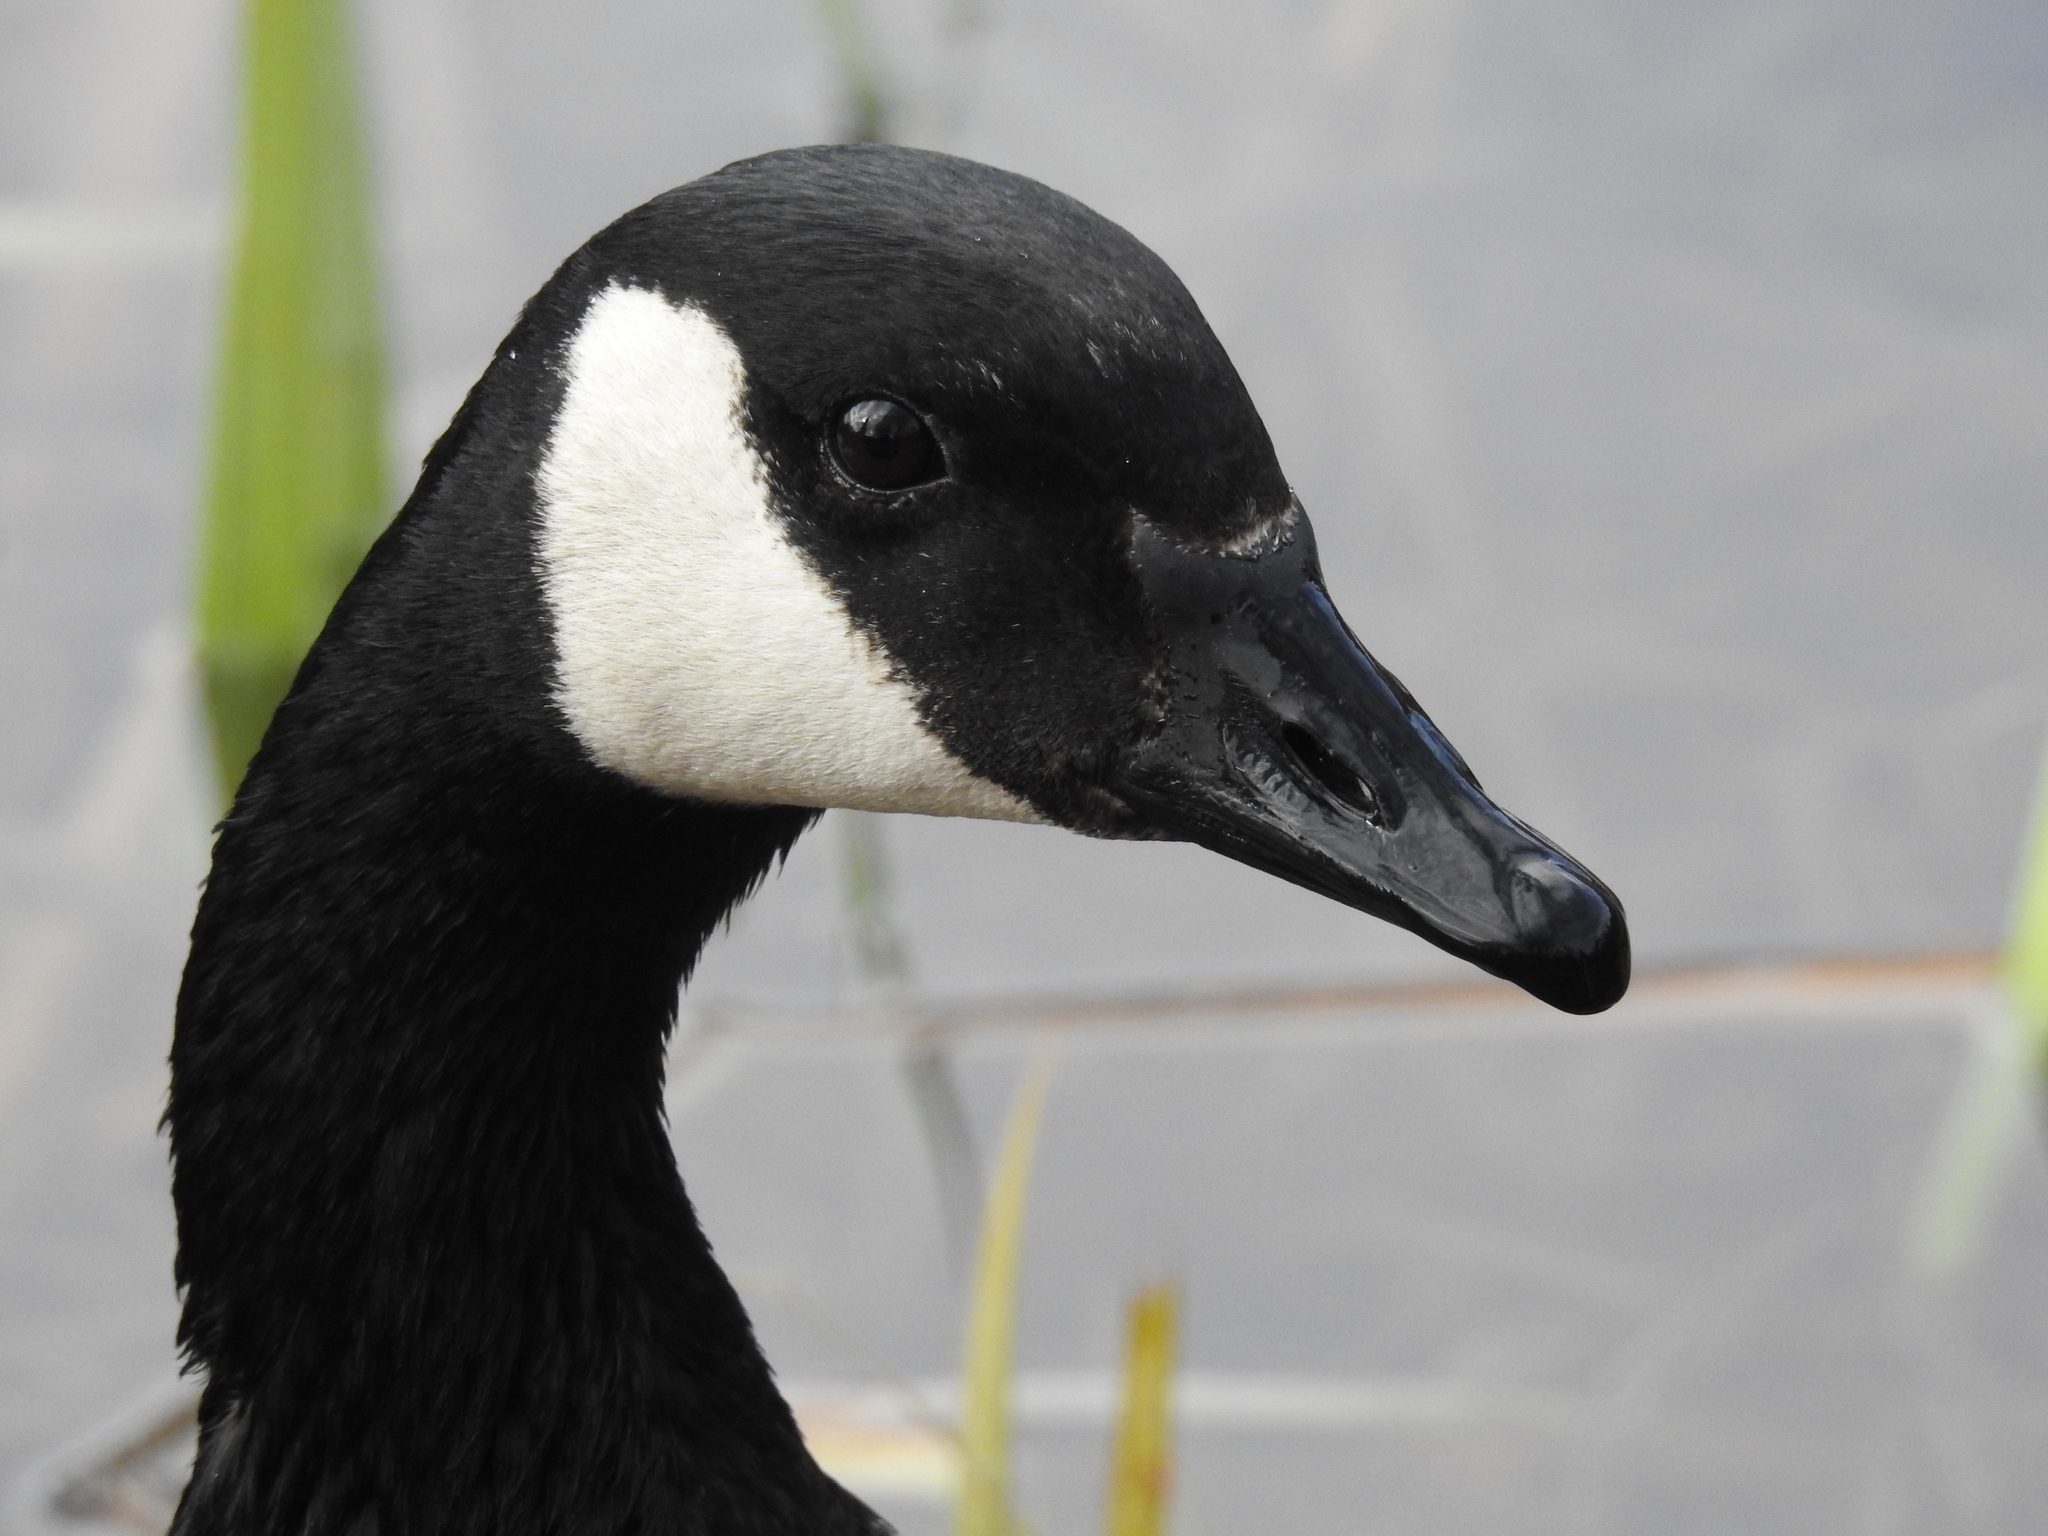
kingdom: Animalia
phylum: Chordata
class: Aves
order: Anseriformes
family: Anatidae
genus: Branta
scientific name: Branta canadensis
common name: Canada goose
